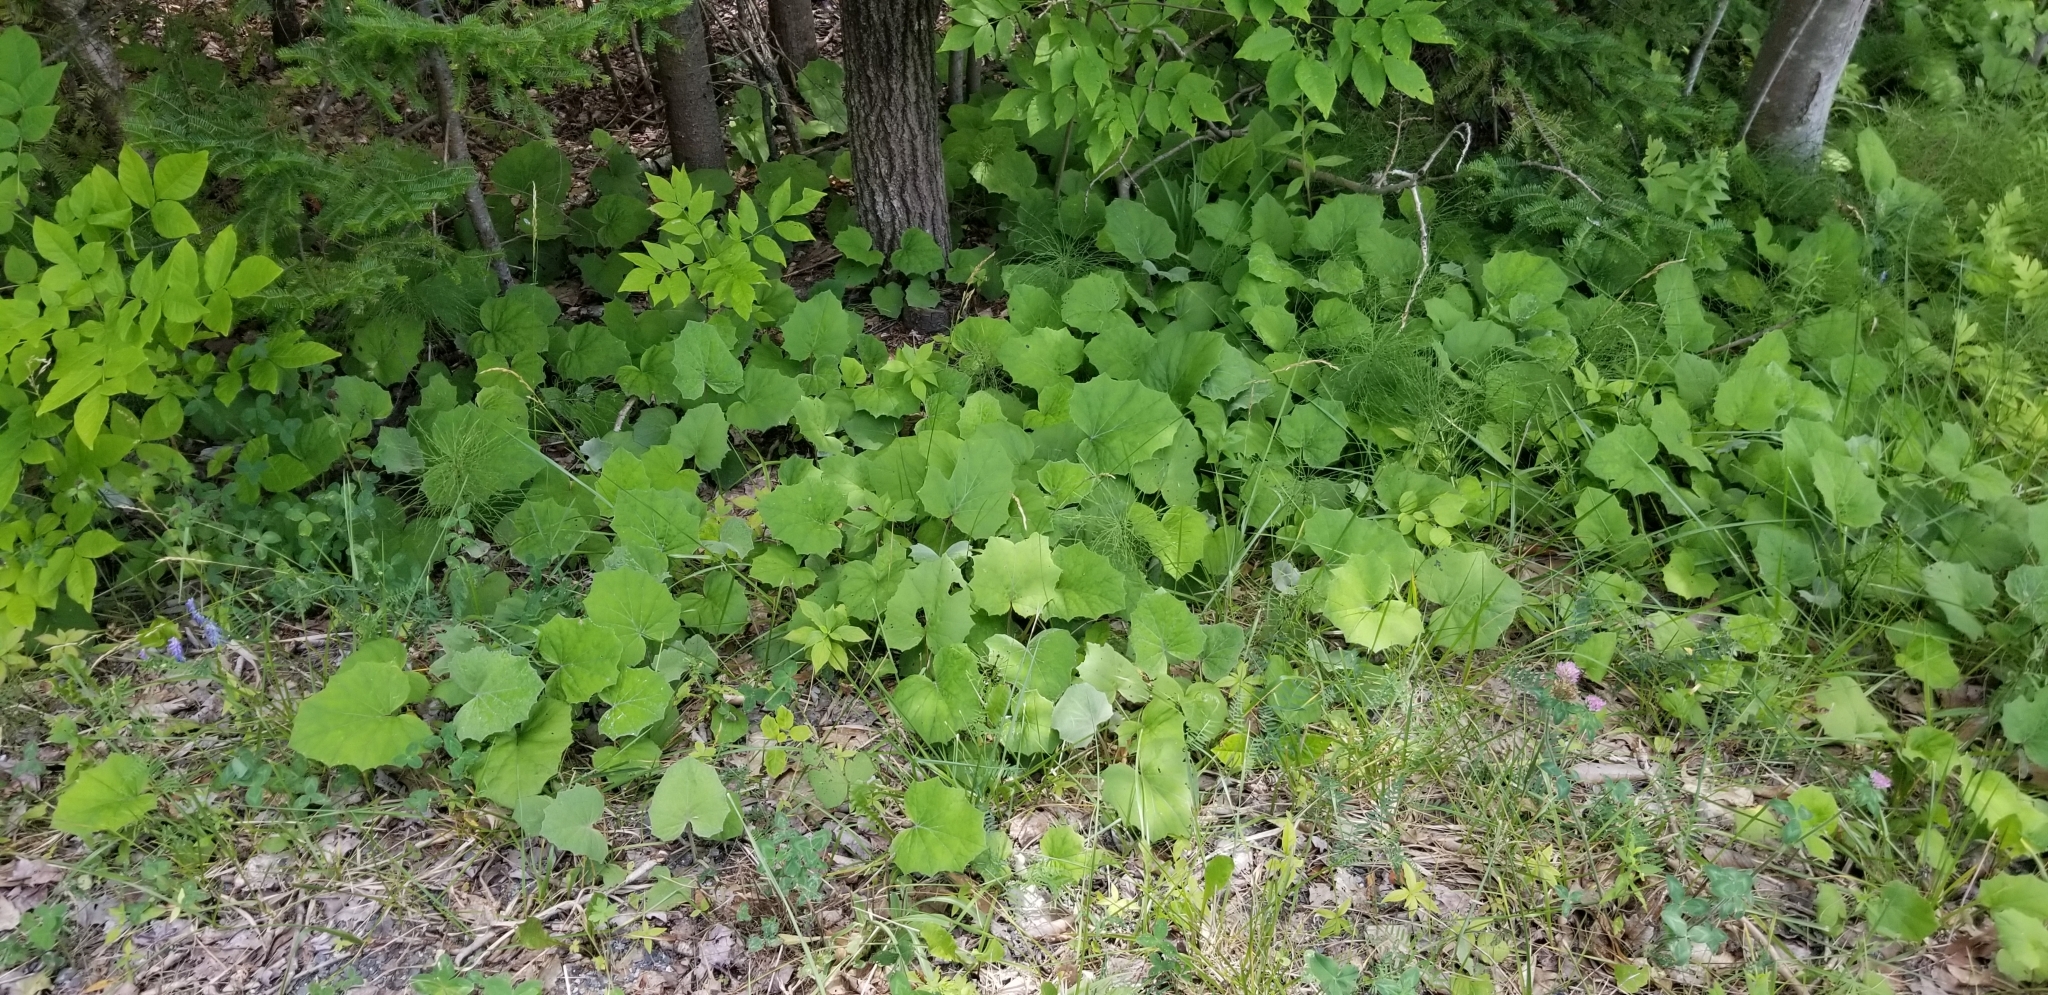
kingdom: Plantae
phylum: Tracheophyta
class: Magnoliopsida
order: Asterales
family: Asteraceae
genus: Tussilago
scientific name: Tussilago farfara
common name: Coltsfoot
